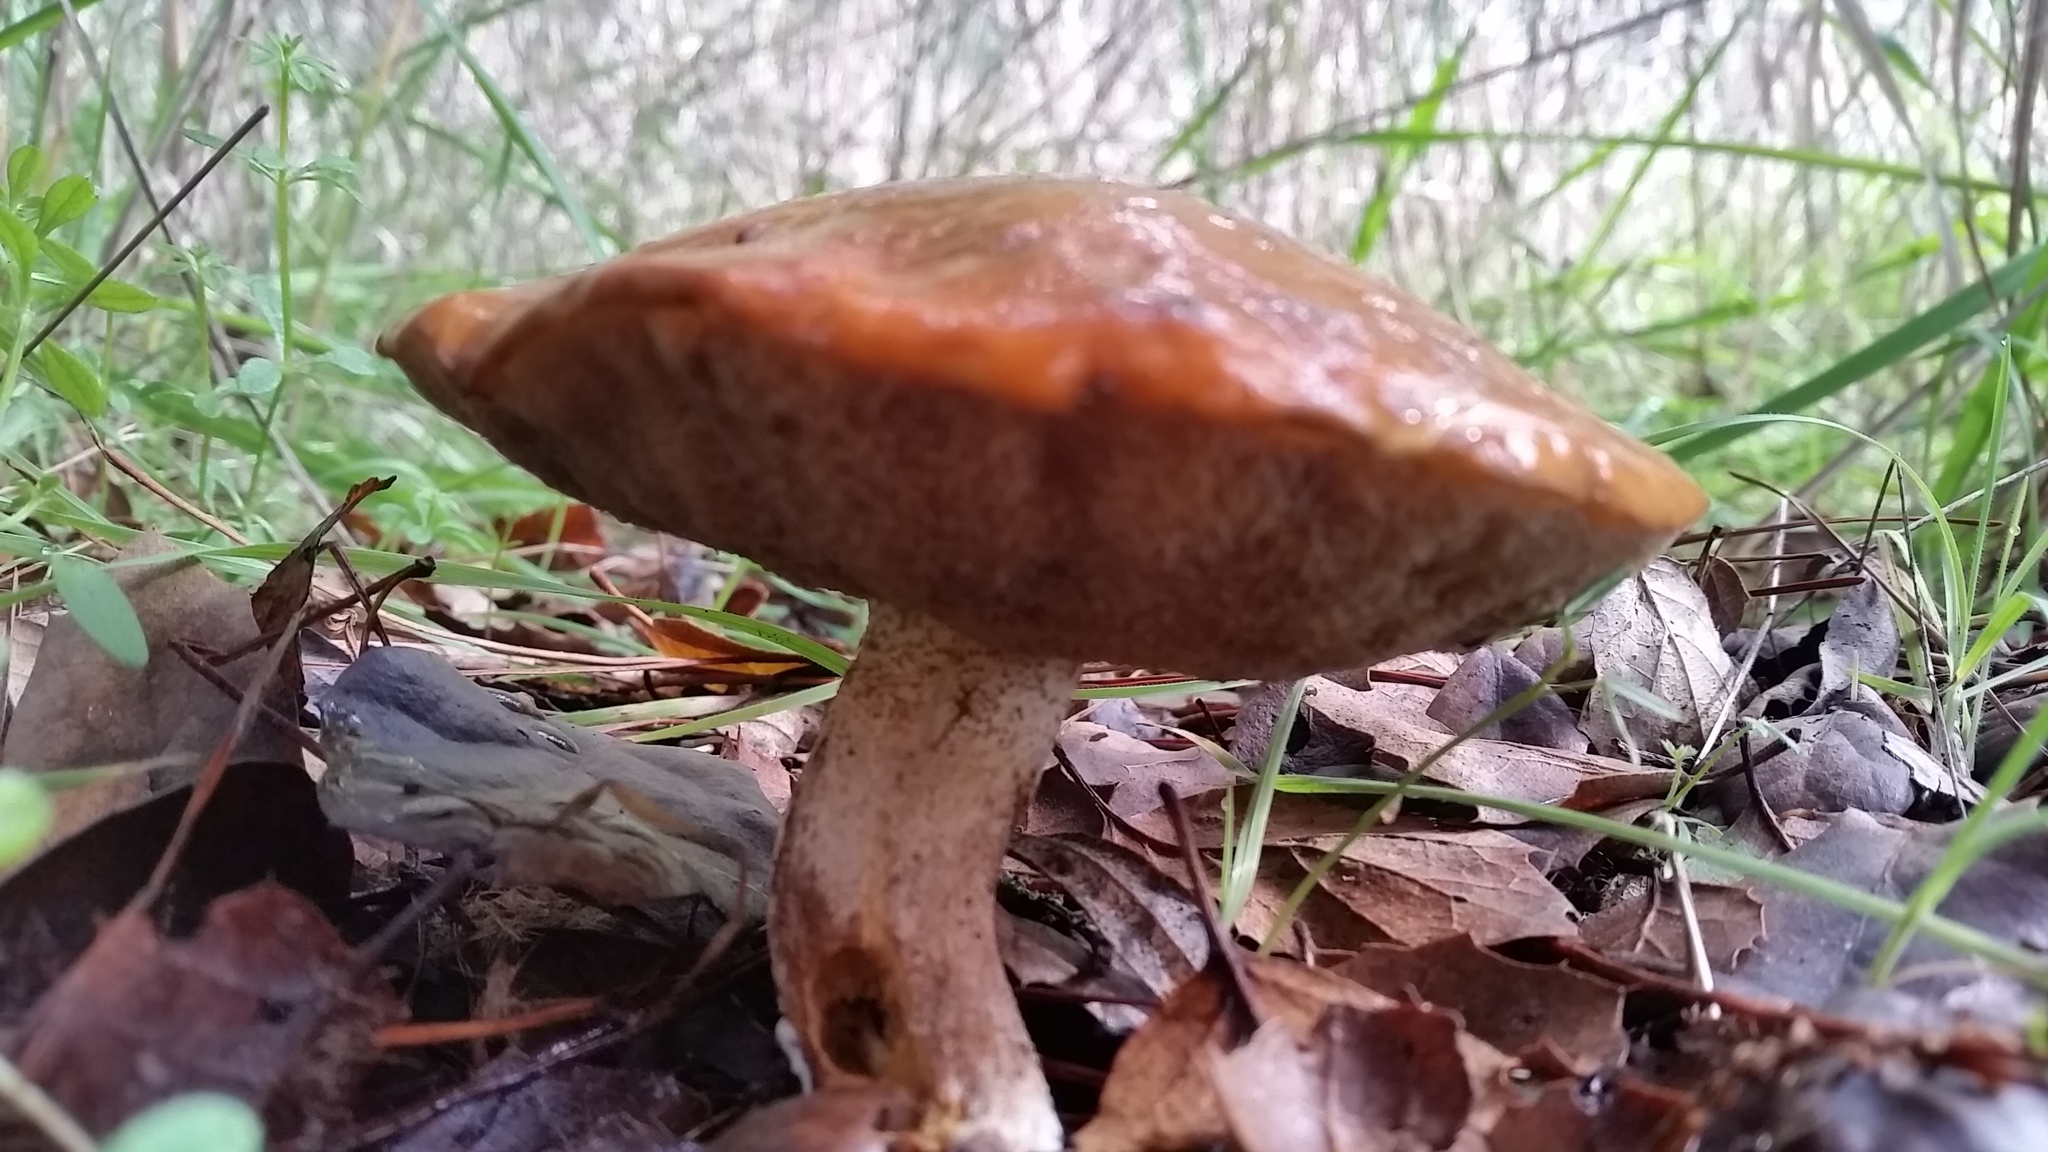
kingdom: Fungi
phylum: Basidiomycota
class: Agaricomycetes
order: Boletales
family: Suillaceae
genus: Suillus
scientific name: Suillus pungens
